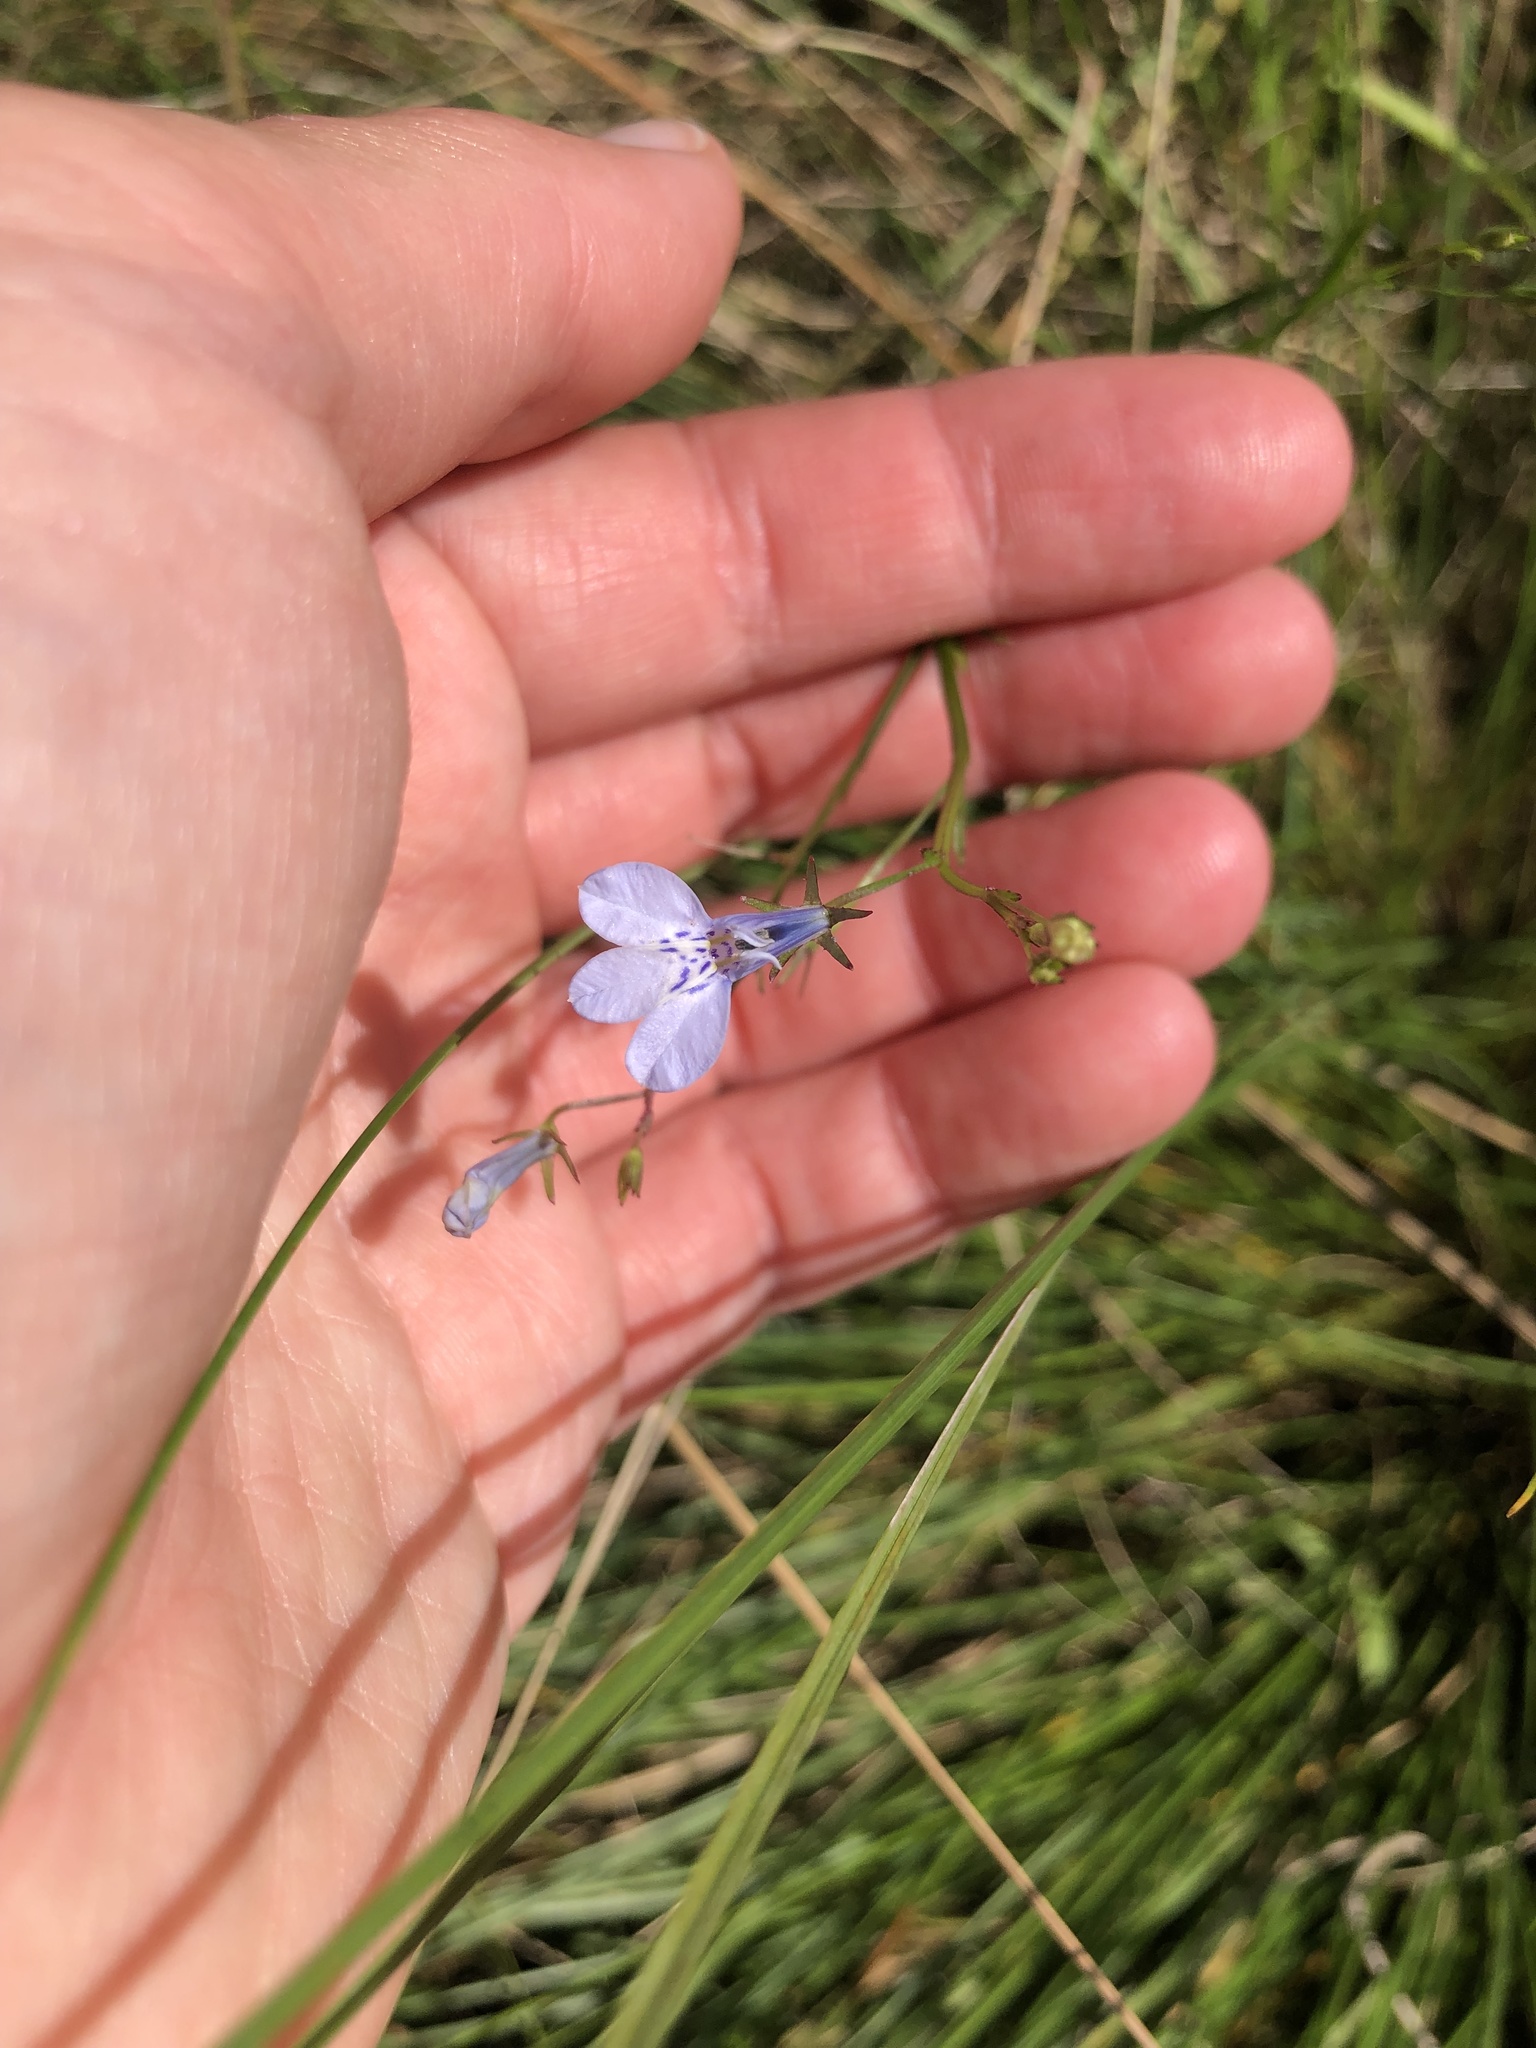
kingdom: Plantae
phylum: Tracheophyta
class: Magnoliopsida
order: Asterales
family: Campanulaceae
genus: Lobelia
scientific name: Lobelia flaccida
